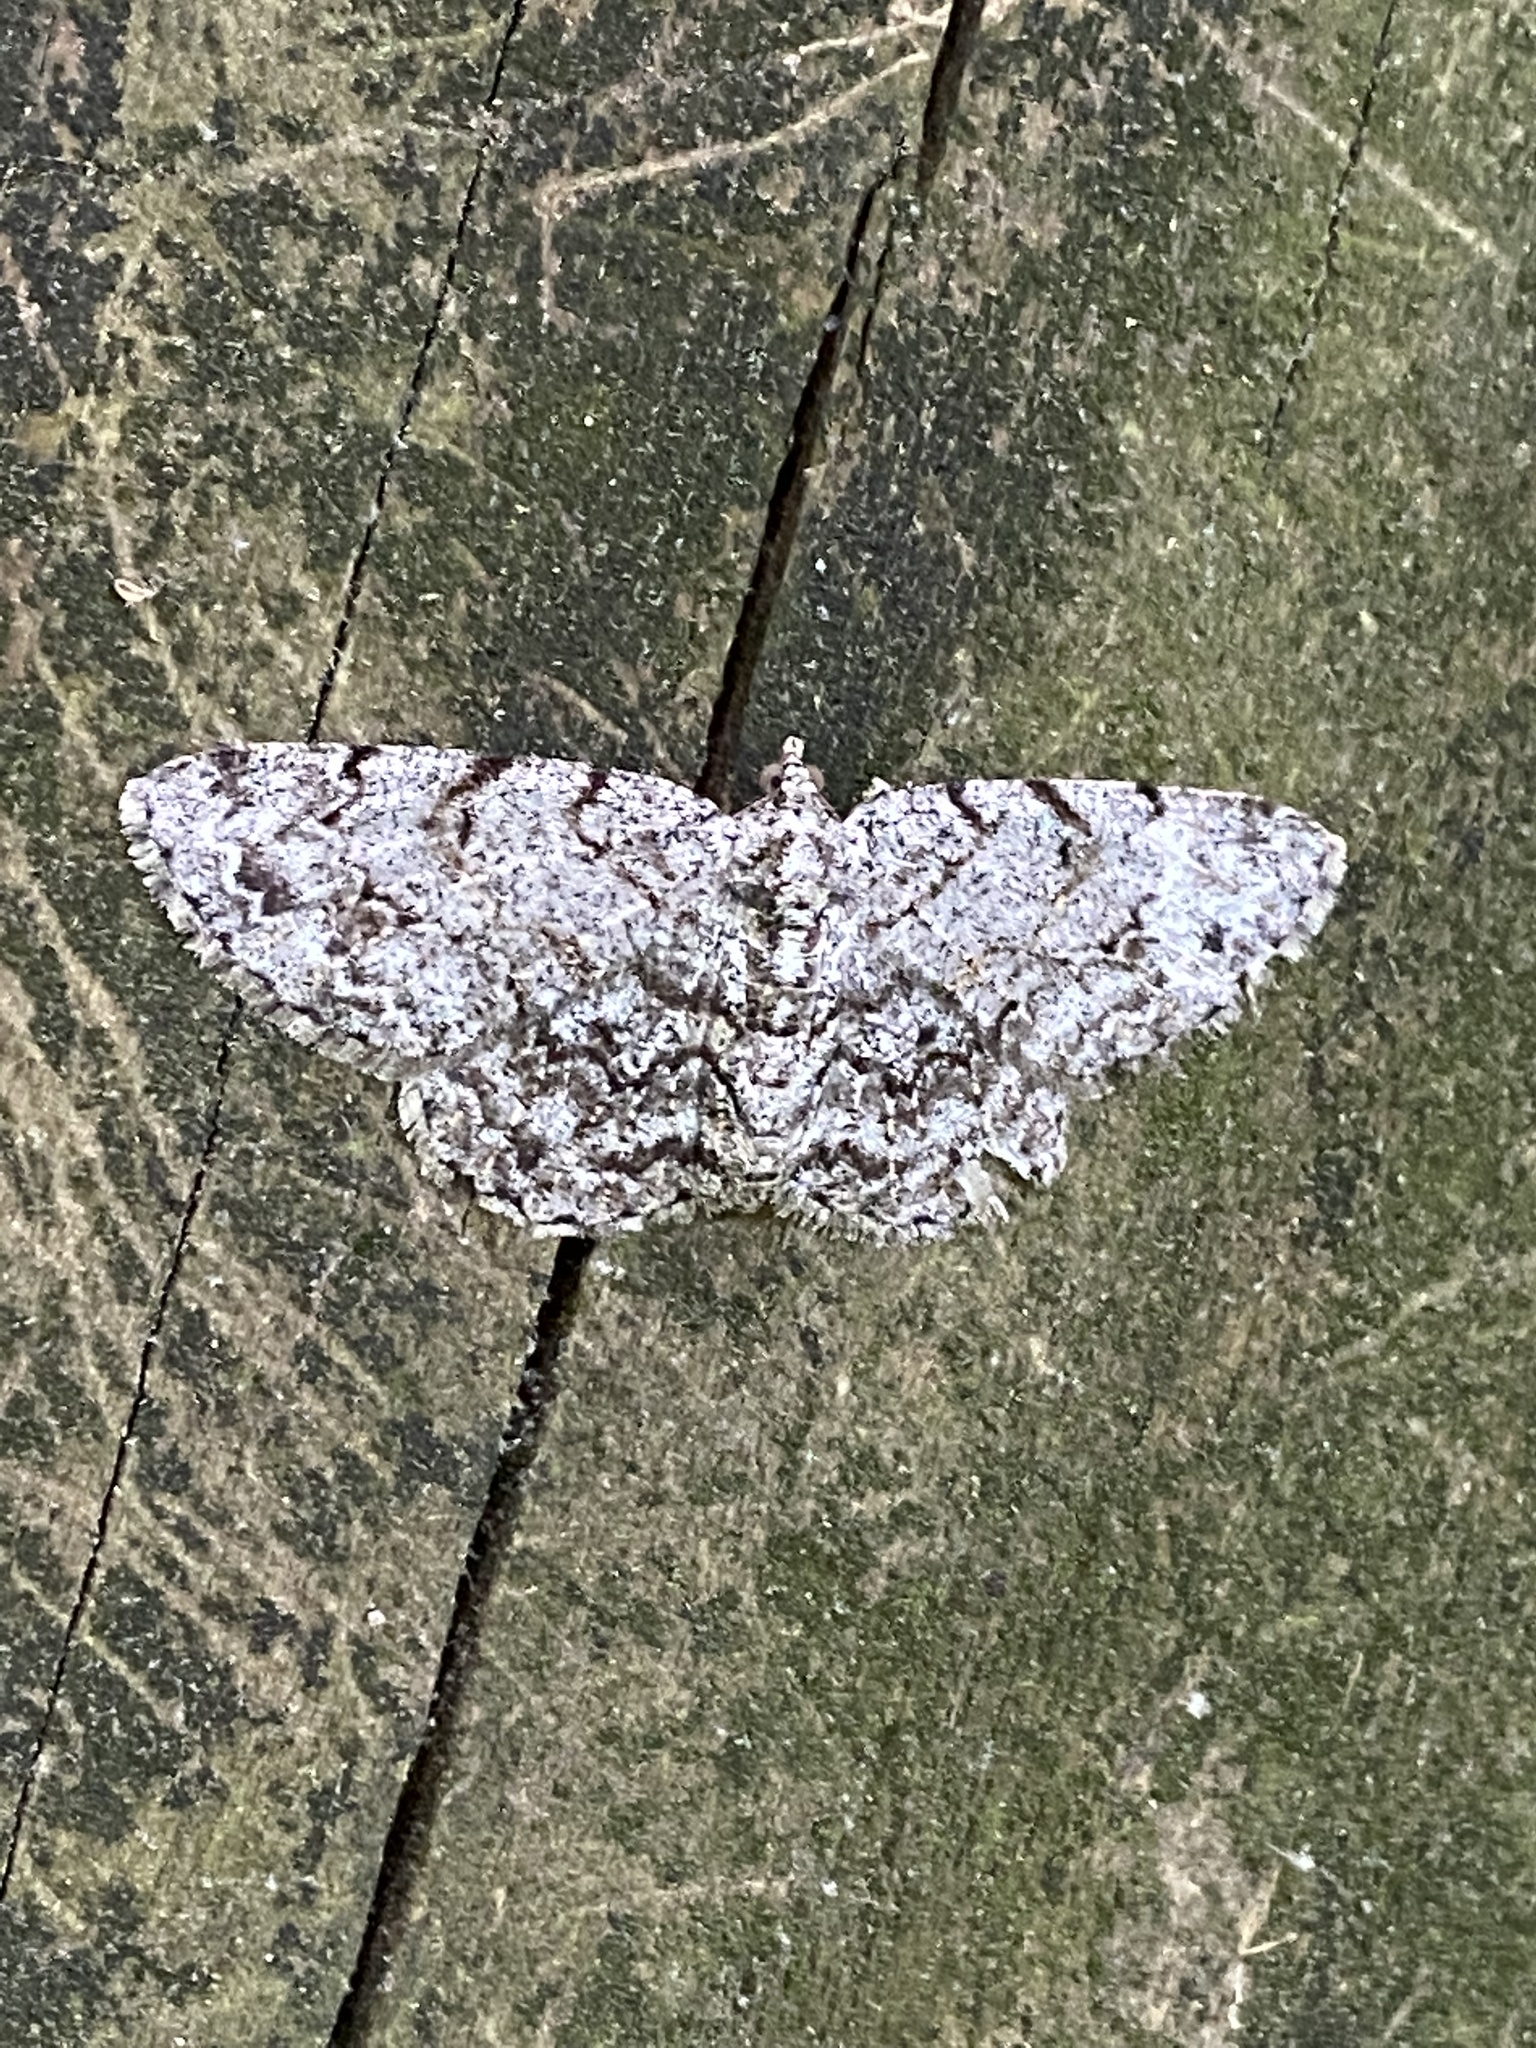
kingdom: Animalia
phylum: Arthropoda
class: Insecta
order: Lepidoptera
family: Geometridae
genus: Protoboarmia
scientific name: Protoboarmia porcelaria
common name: Porcelain gray
